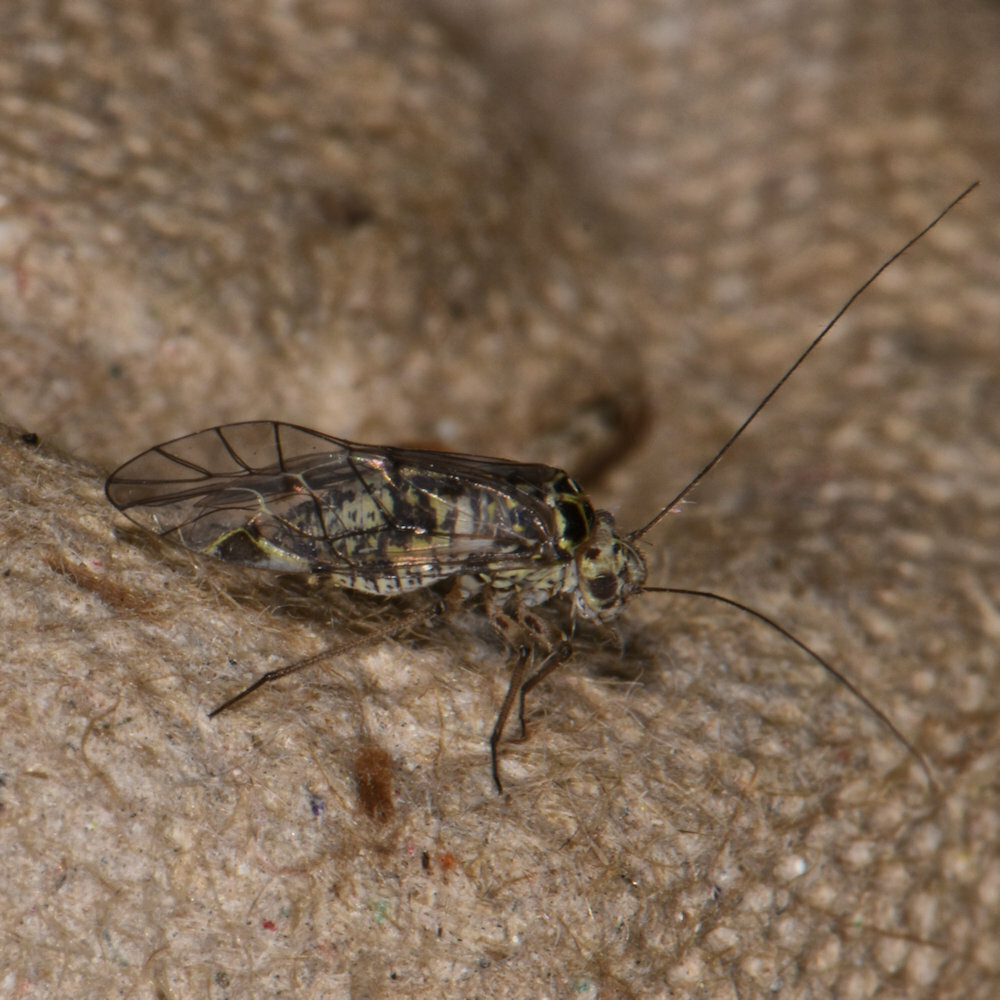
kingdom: Animalia
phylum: Arthropoda
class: Insecta
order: Psocodea
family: Psocidae
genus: Metylophorus
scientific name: Metylophorus novaescotiae
